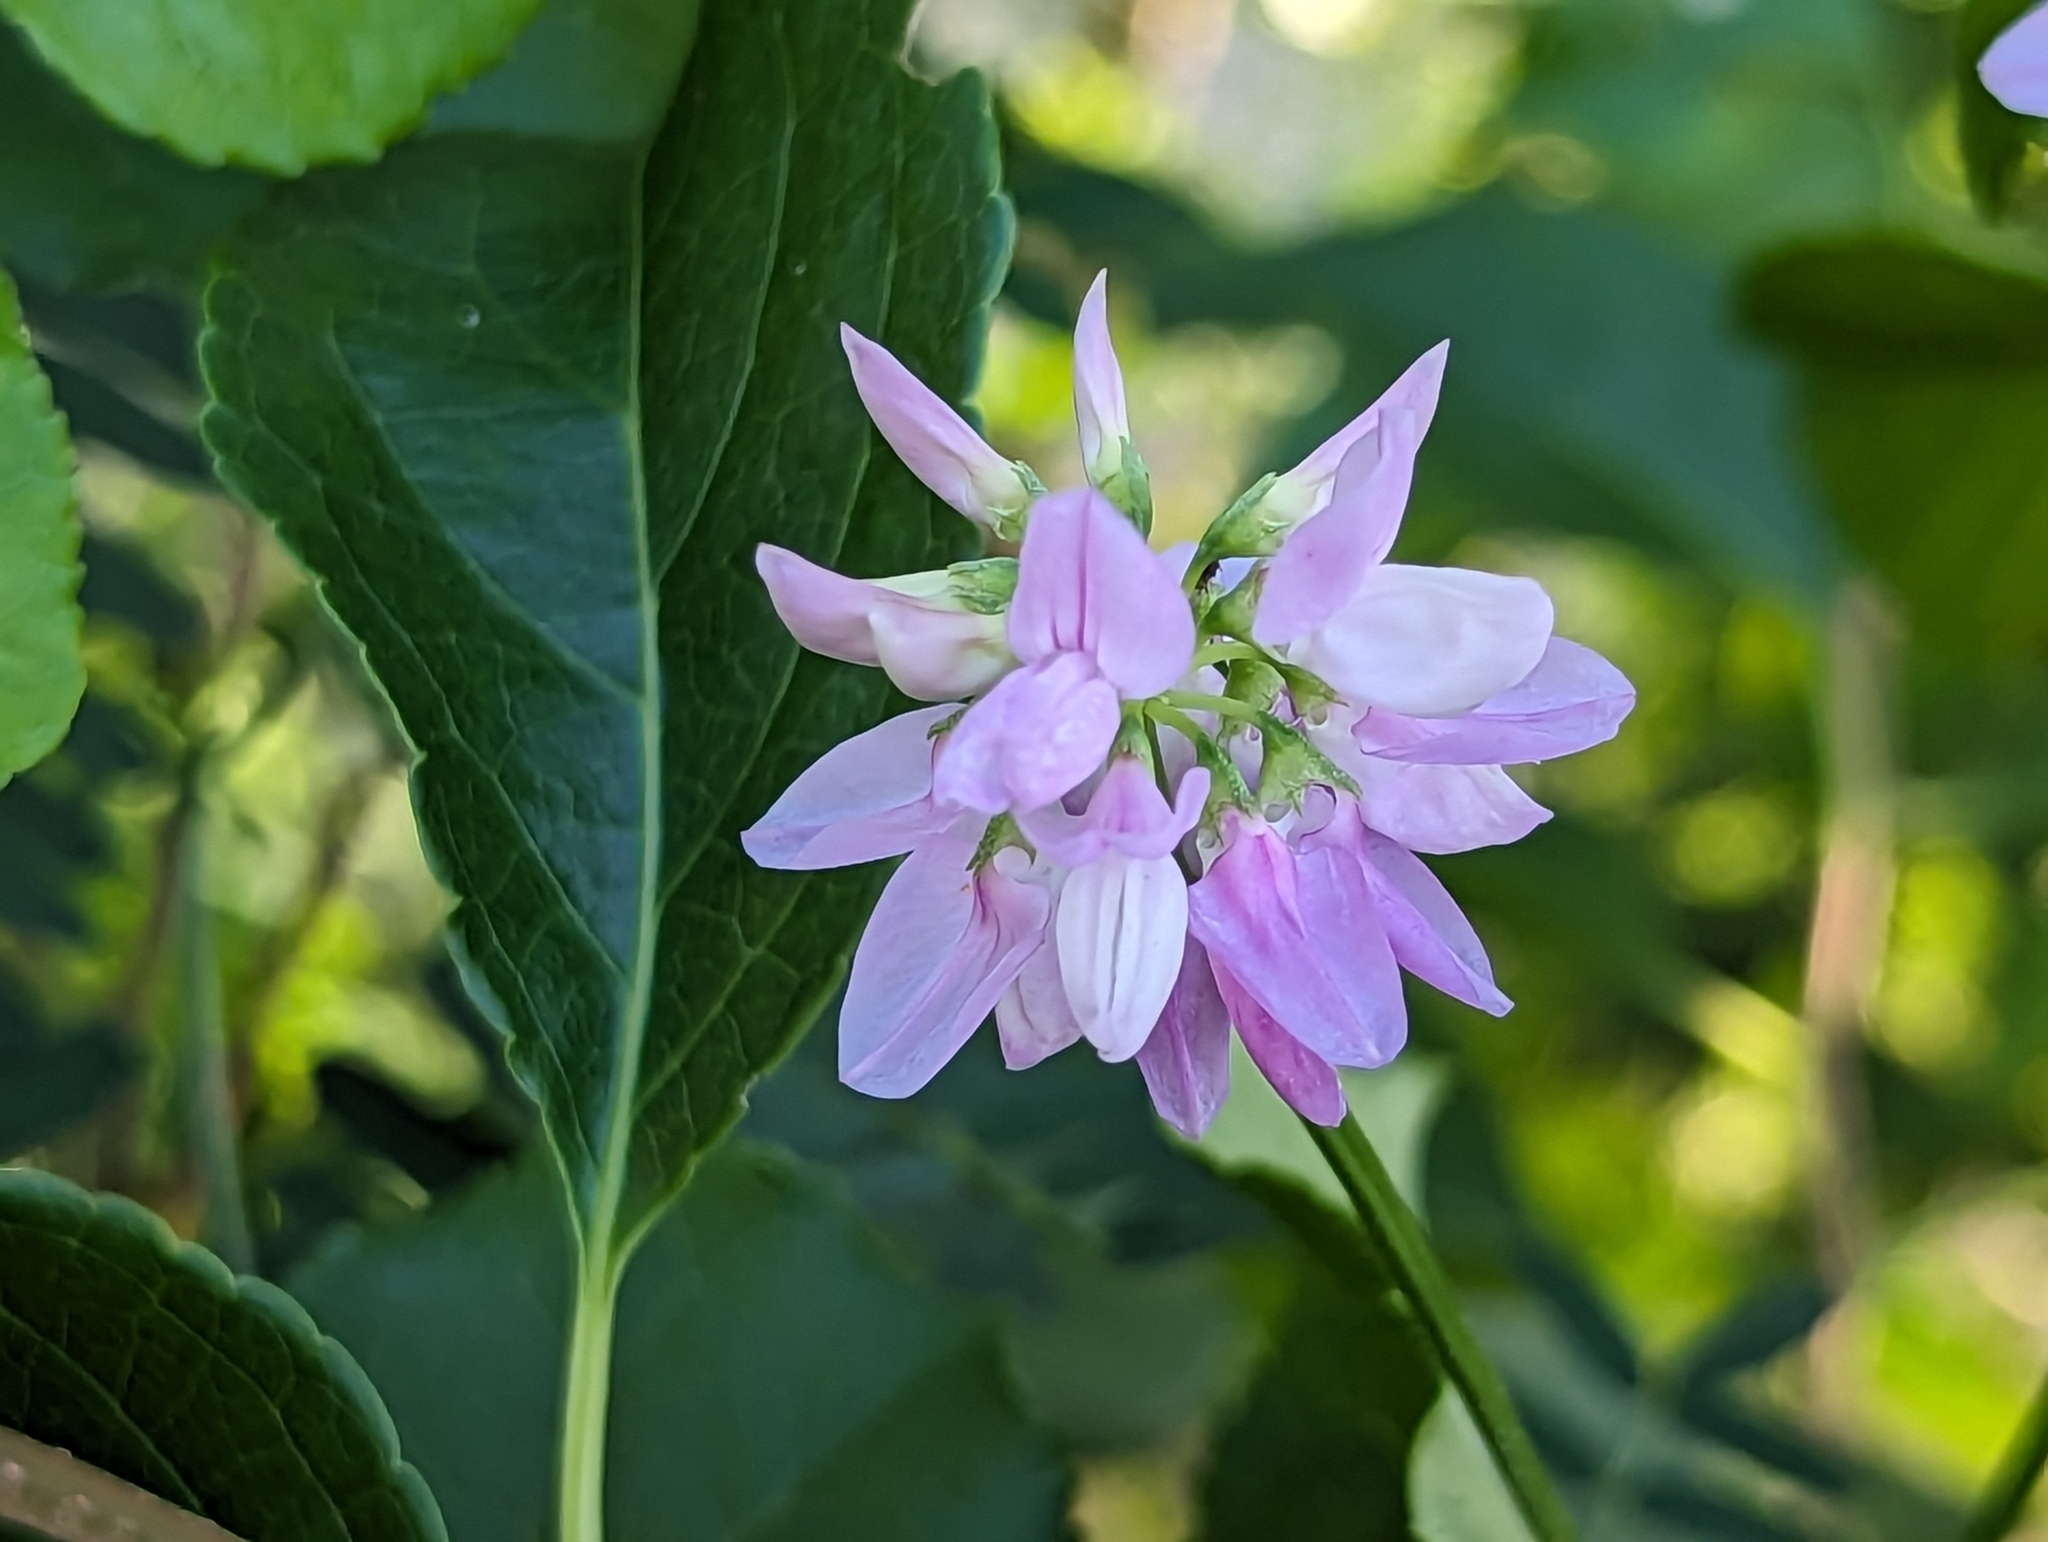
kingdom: Plantae
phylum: Tracheophyta
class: Magnoliopsida
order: Fabales
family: Fabaceae
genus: Coronilla
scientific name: Coronilla varia
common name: Crownvetch
